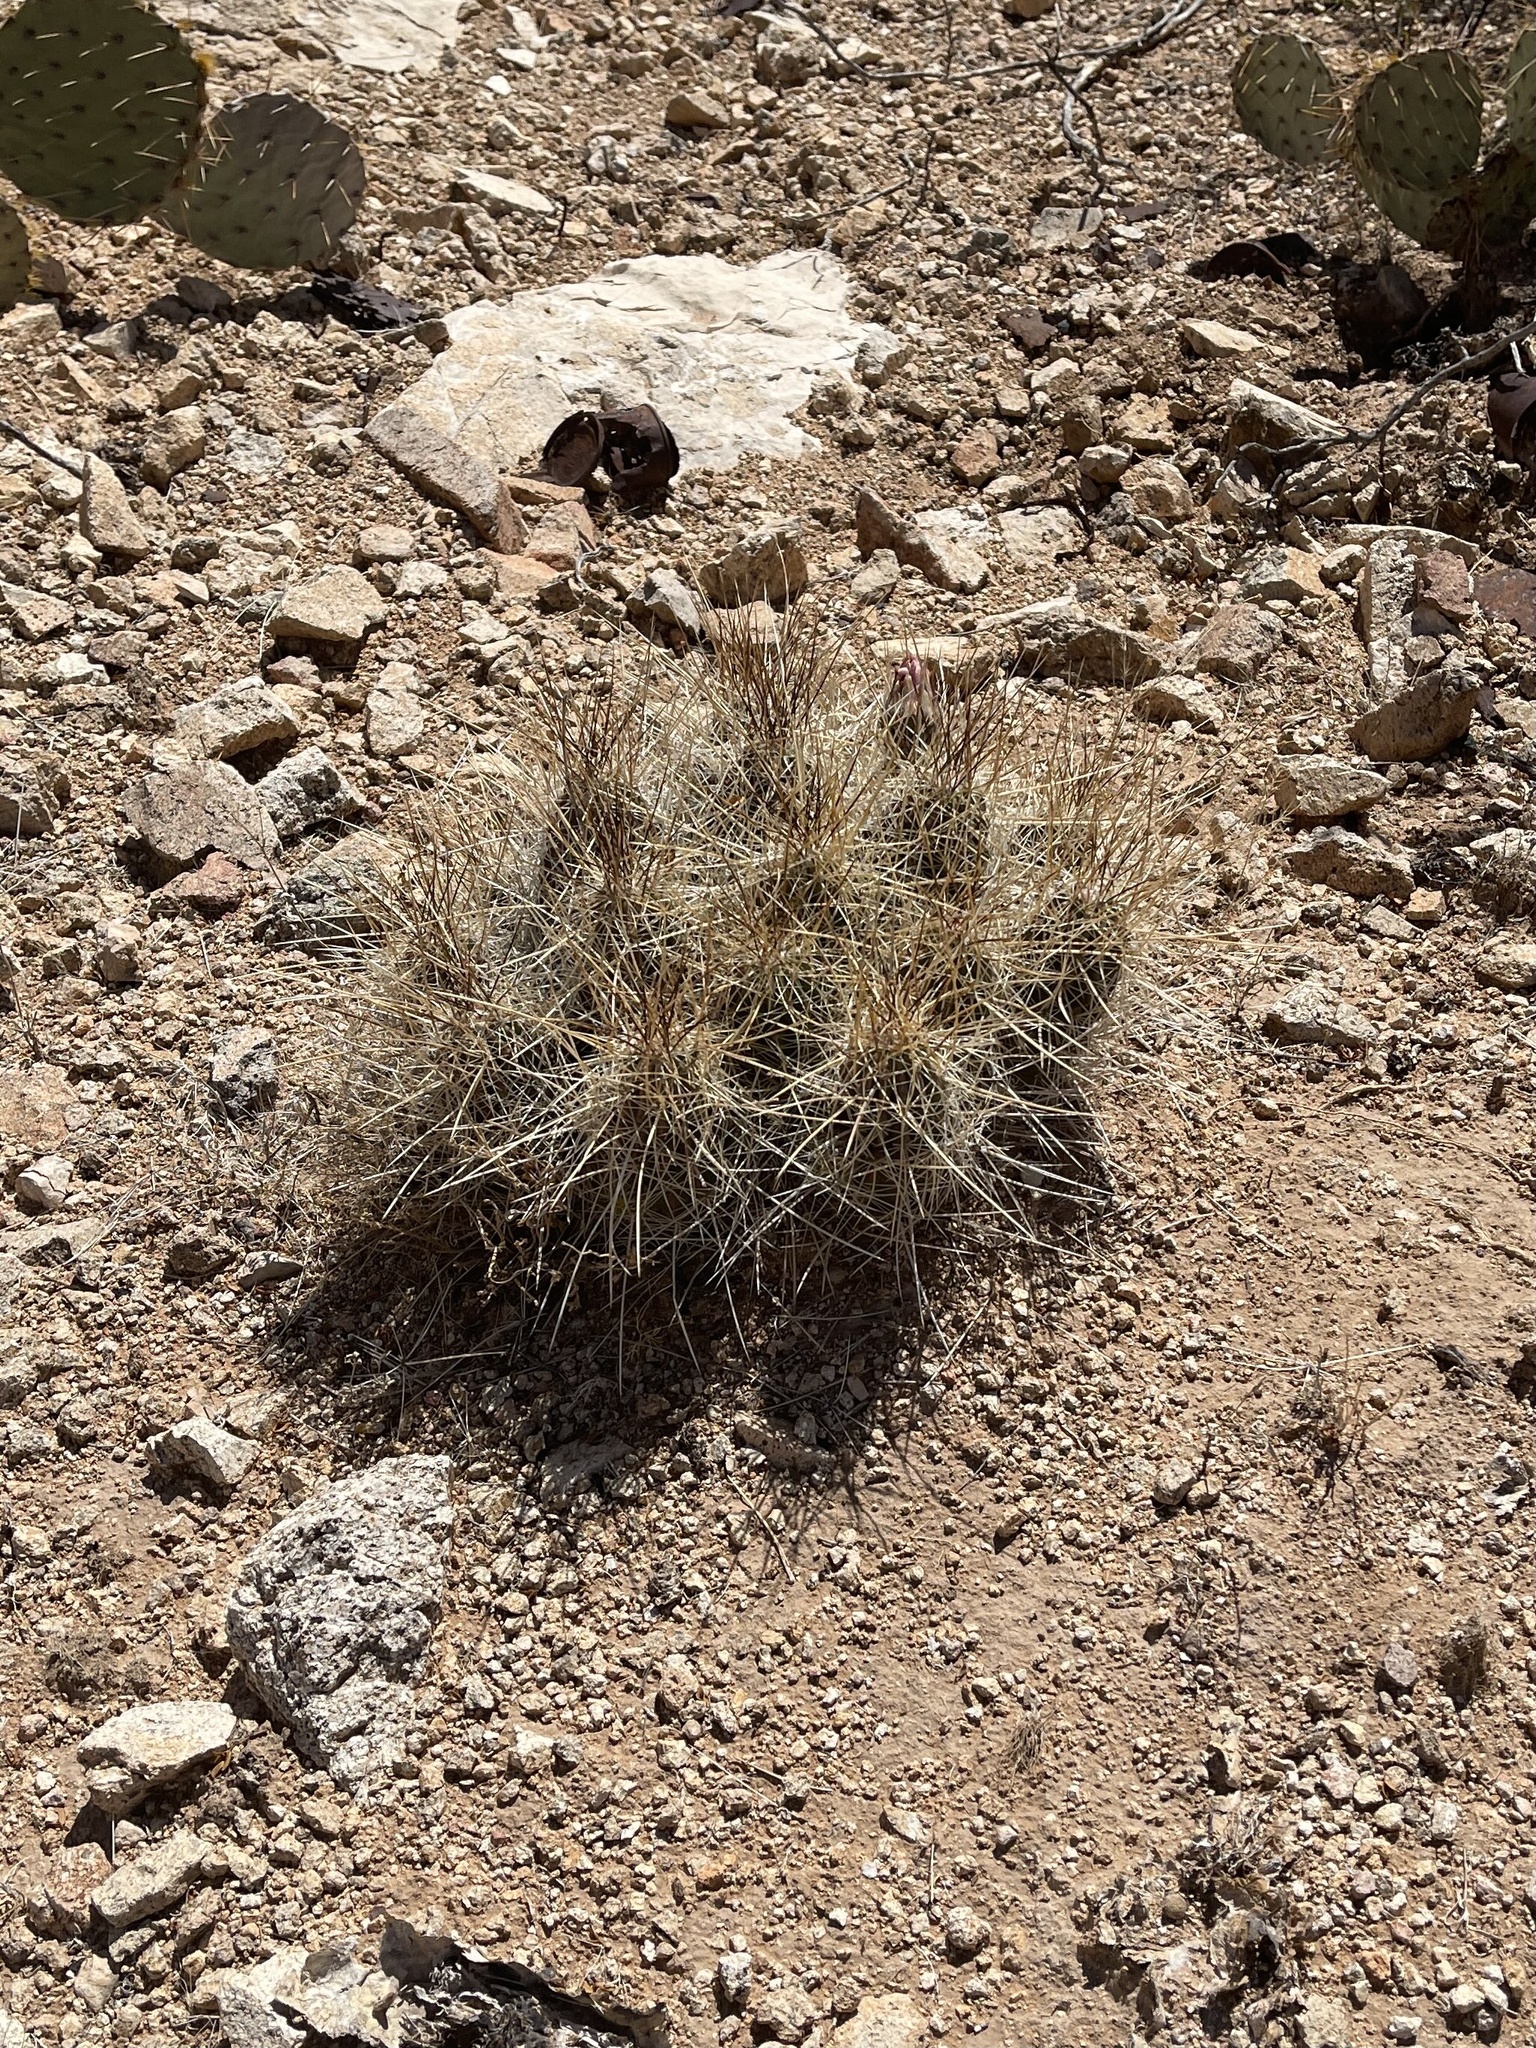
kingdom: Plantae
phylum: Tracheophyta
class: Magnoliopsida
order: Caryophyllales
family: Cactaceae
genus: Echinocereus
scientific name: Echinocereus stramineus
